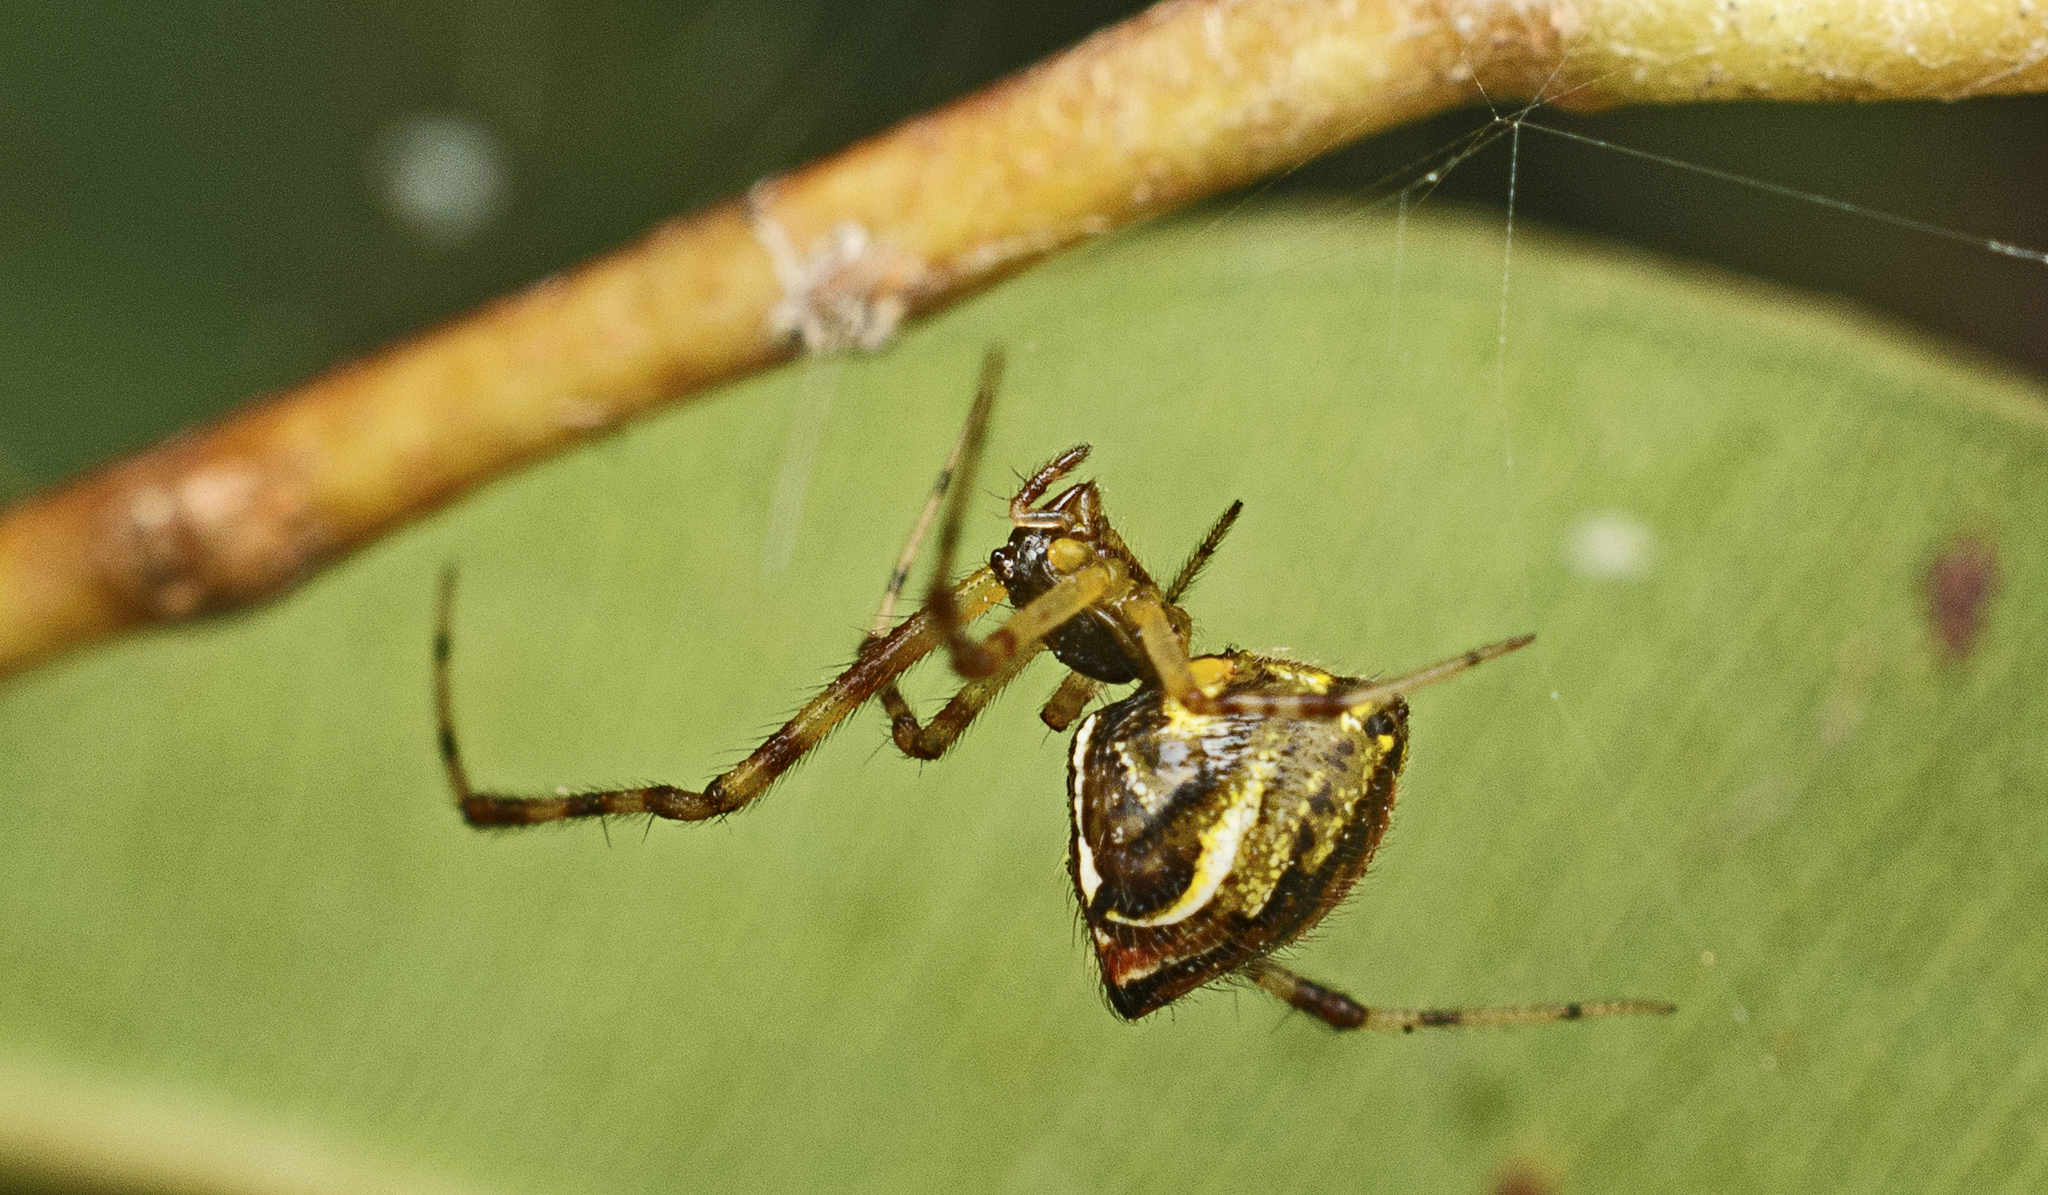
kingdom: Animalia
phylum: Arthropoda
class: Arachnida
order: Araneae
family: Theridiidae
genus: Theridion
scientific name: Theridion pyramidale
